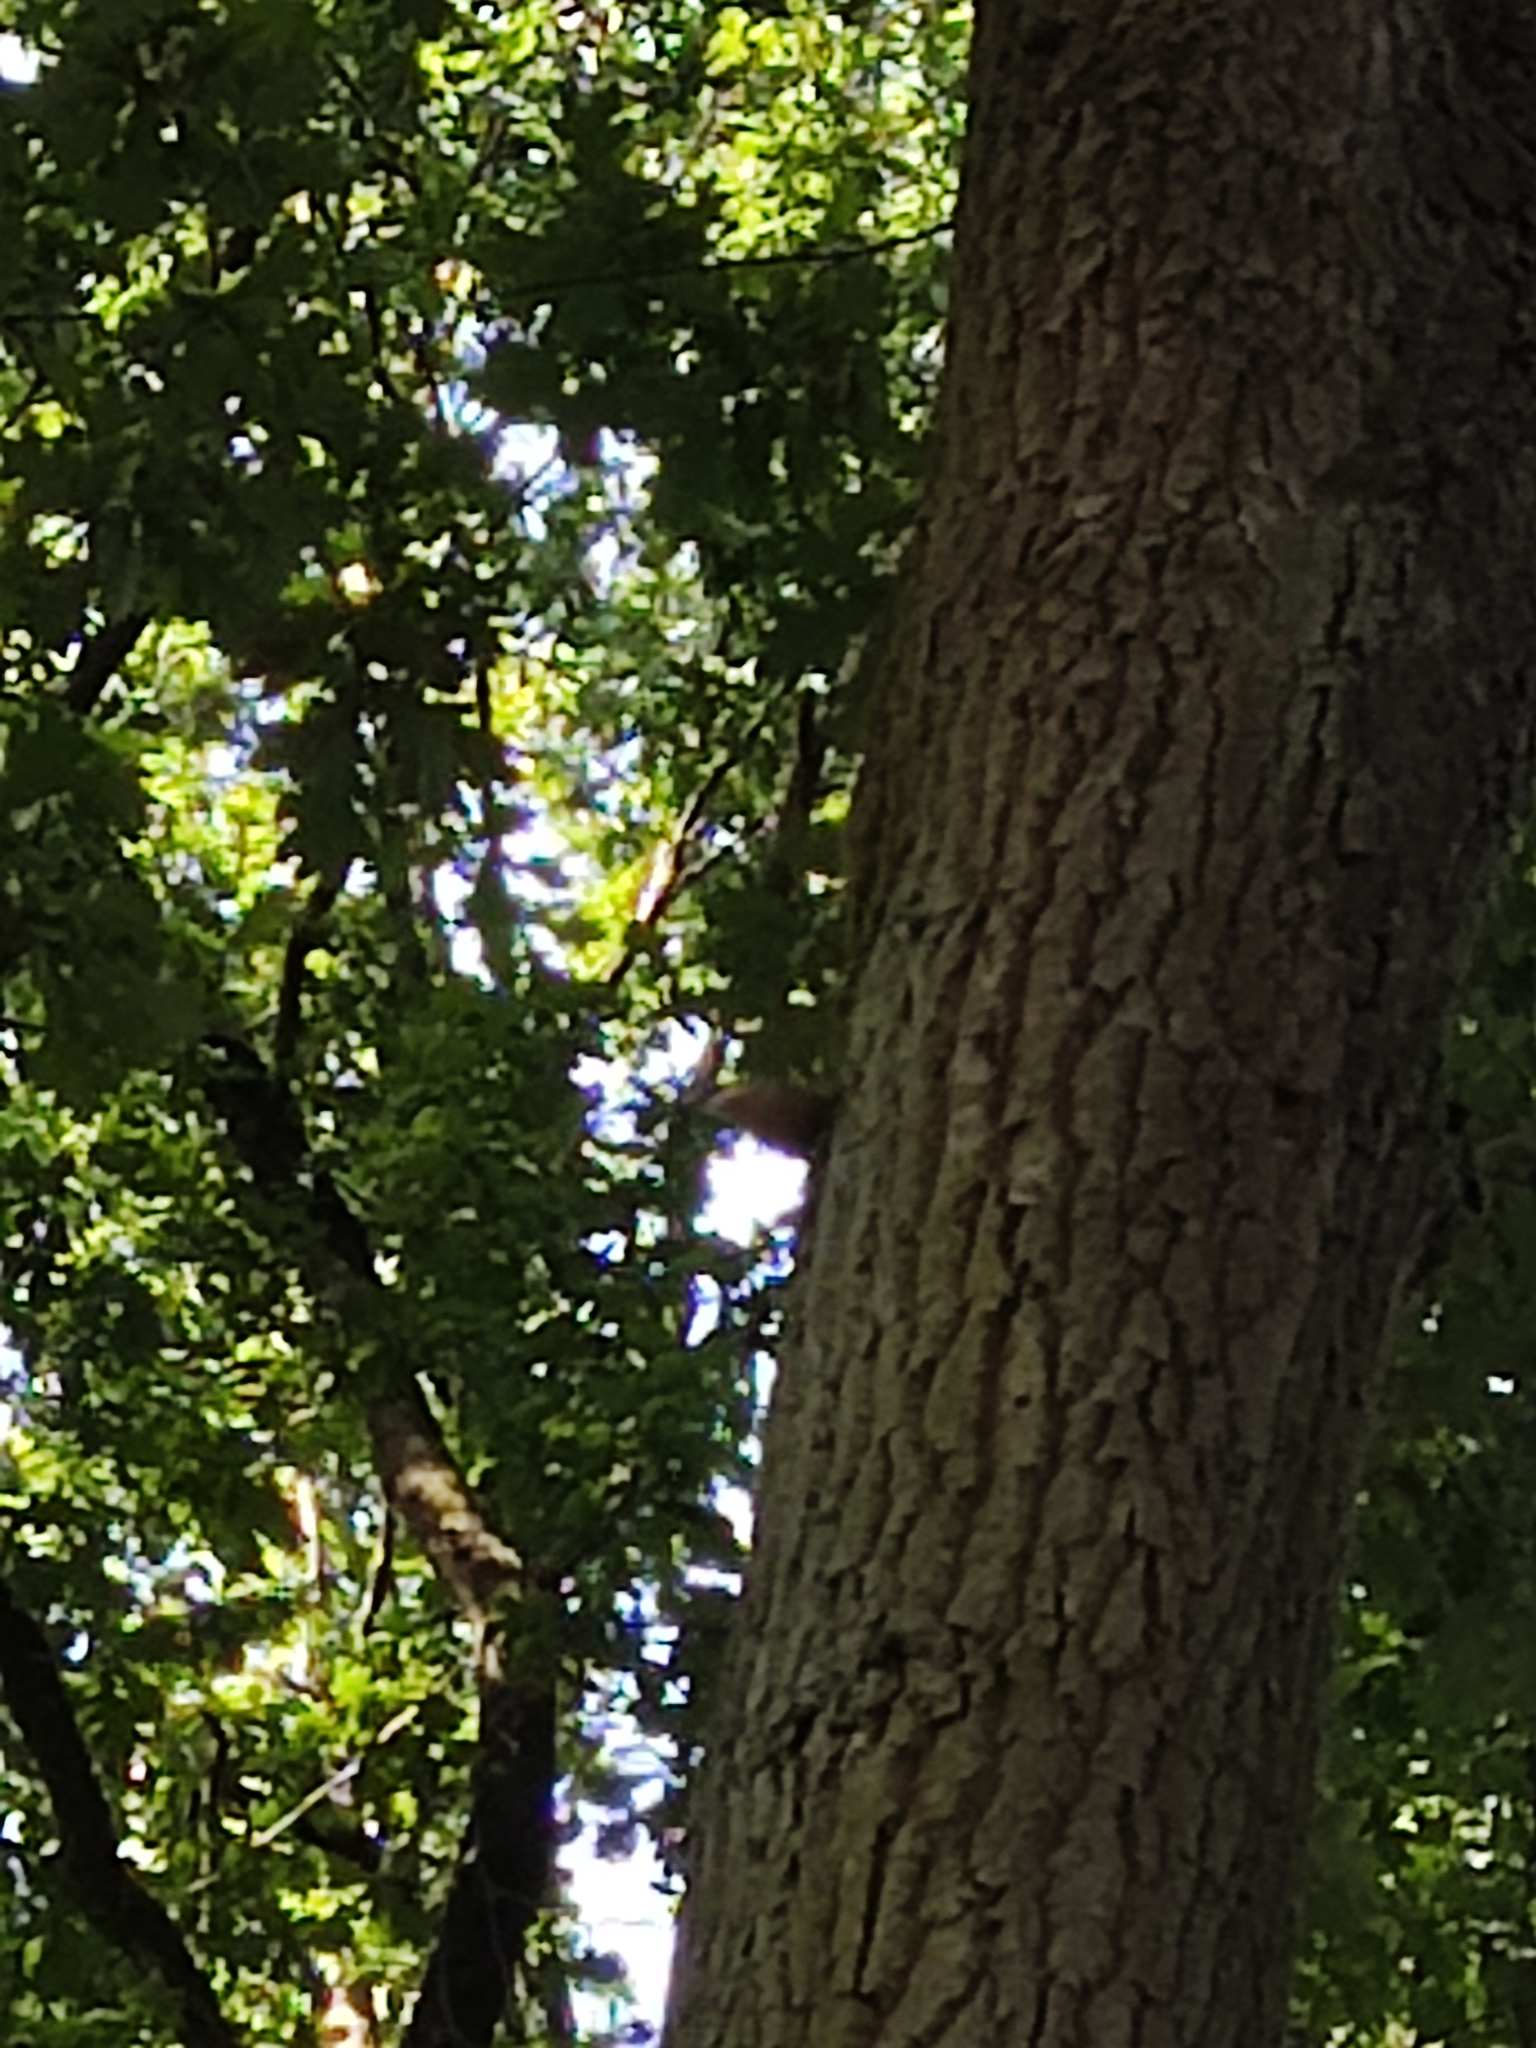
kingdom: Animalia
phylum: Chordata
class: Aves
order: Passeriformes
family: Sittidae
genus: Sitta
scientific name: Sitta europaea
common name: Eurasian nuthatch
